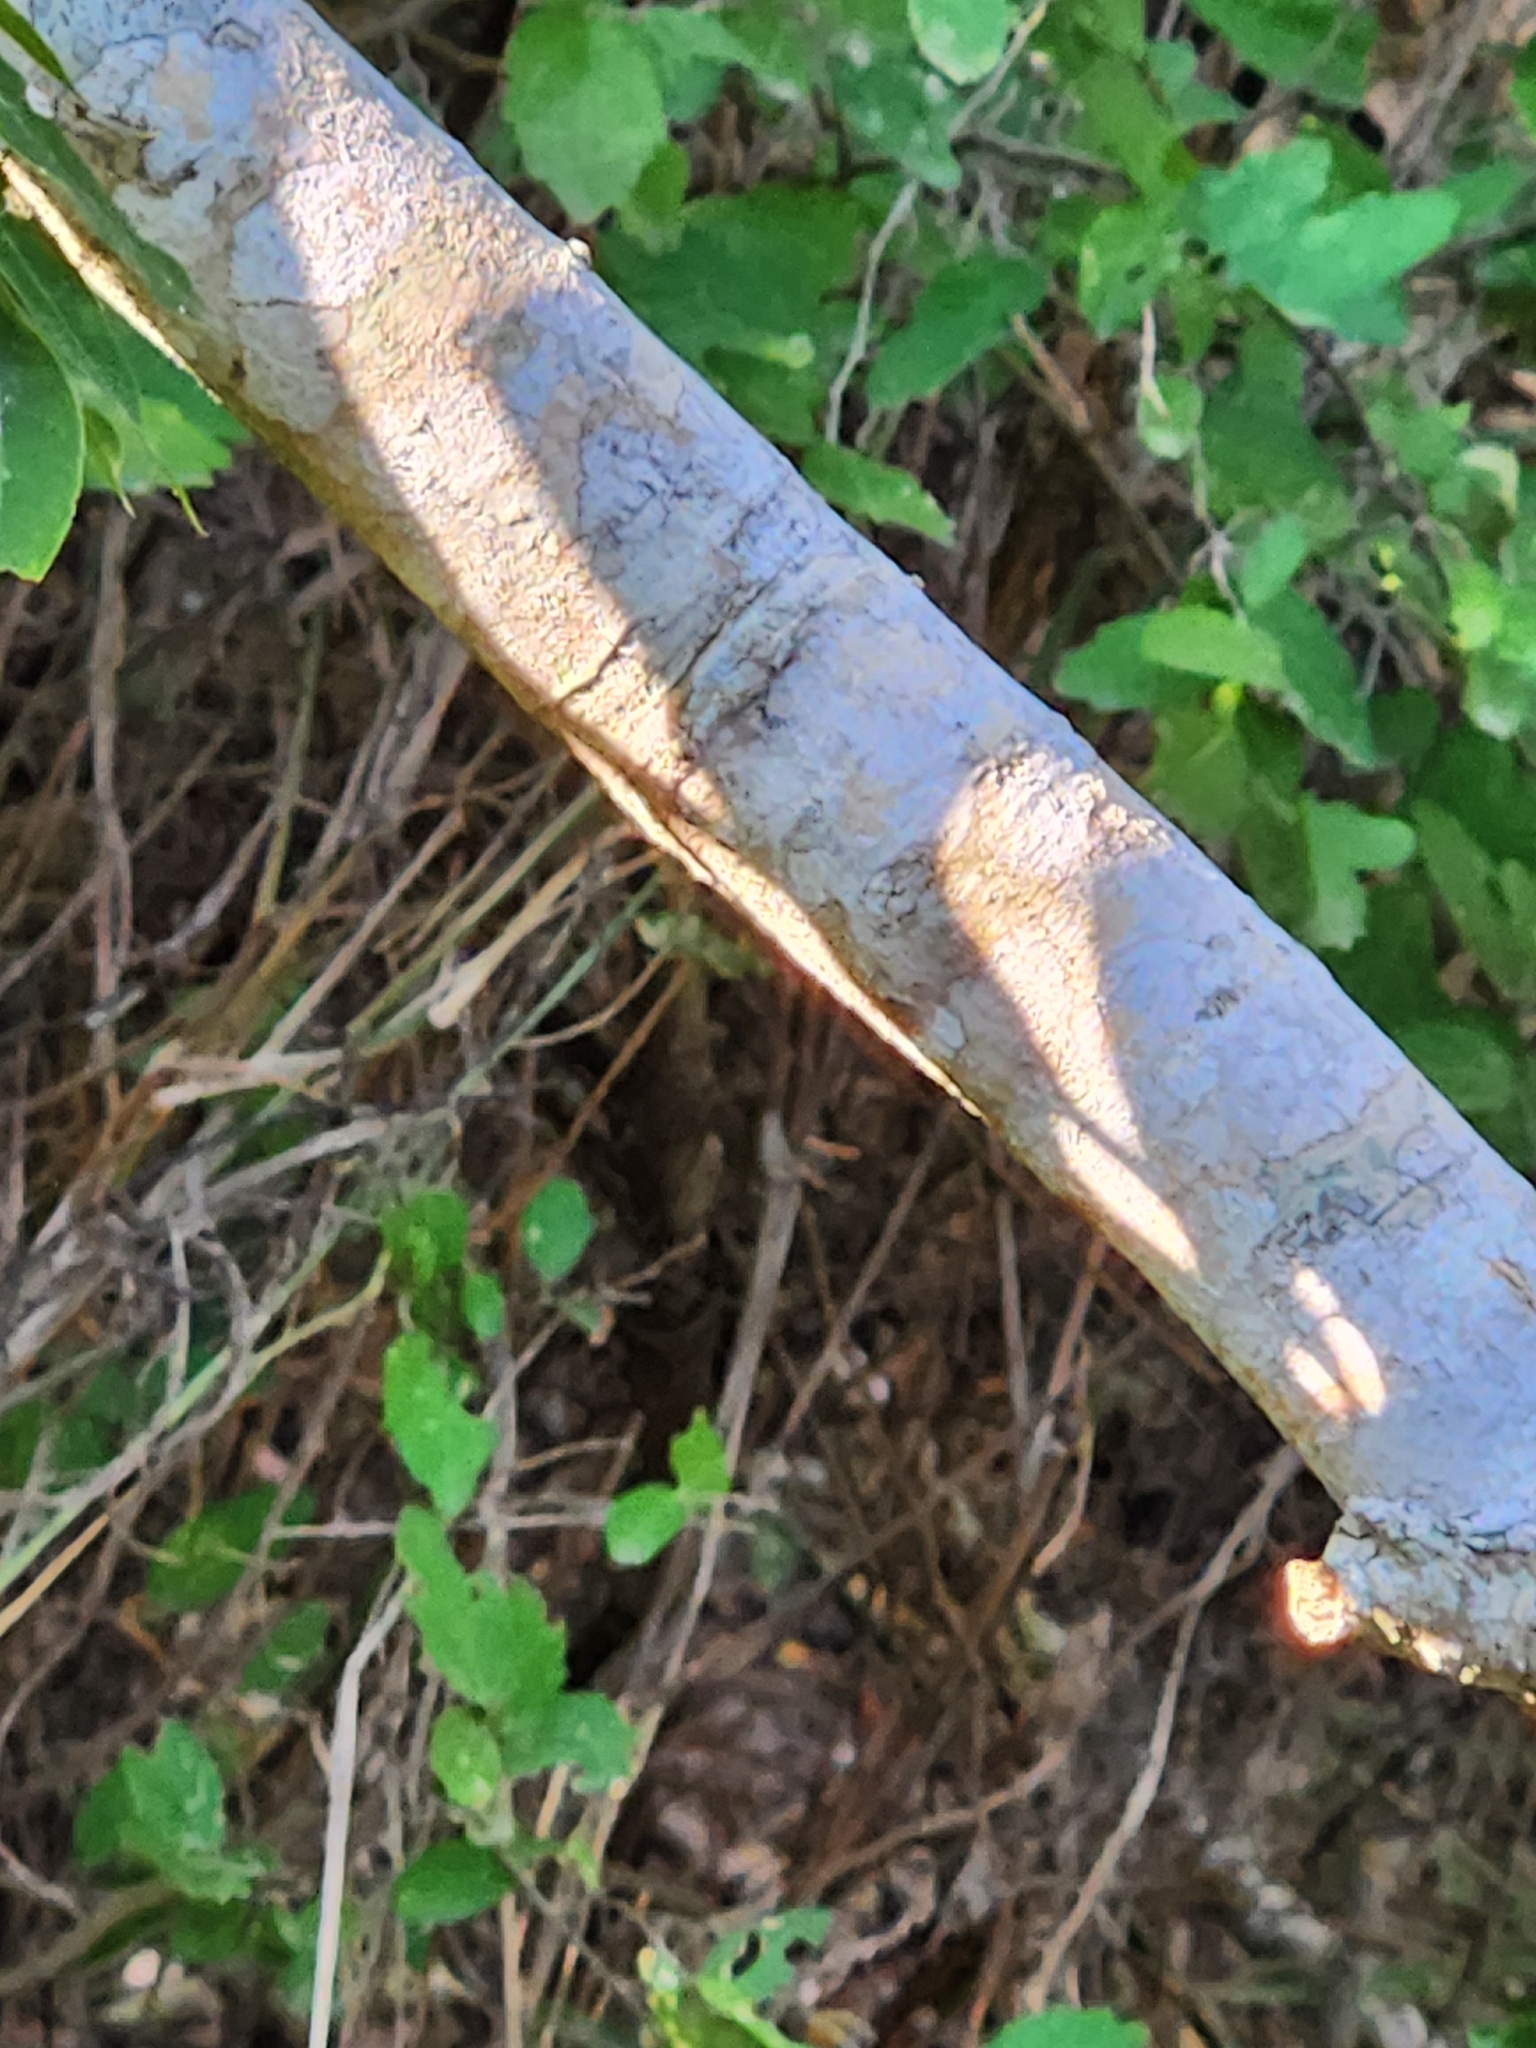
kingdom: Plantae
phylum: Tracheophyta
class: Magnoliopsida
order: Sapindales
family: Sapindaceae
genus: Sapindus
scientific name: Sapindus drummondii
